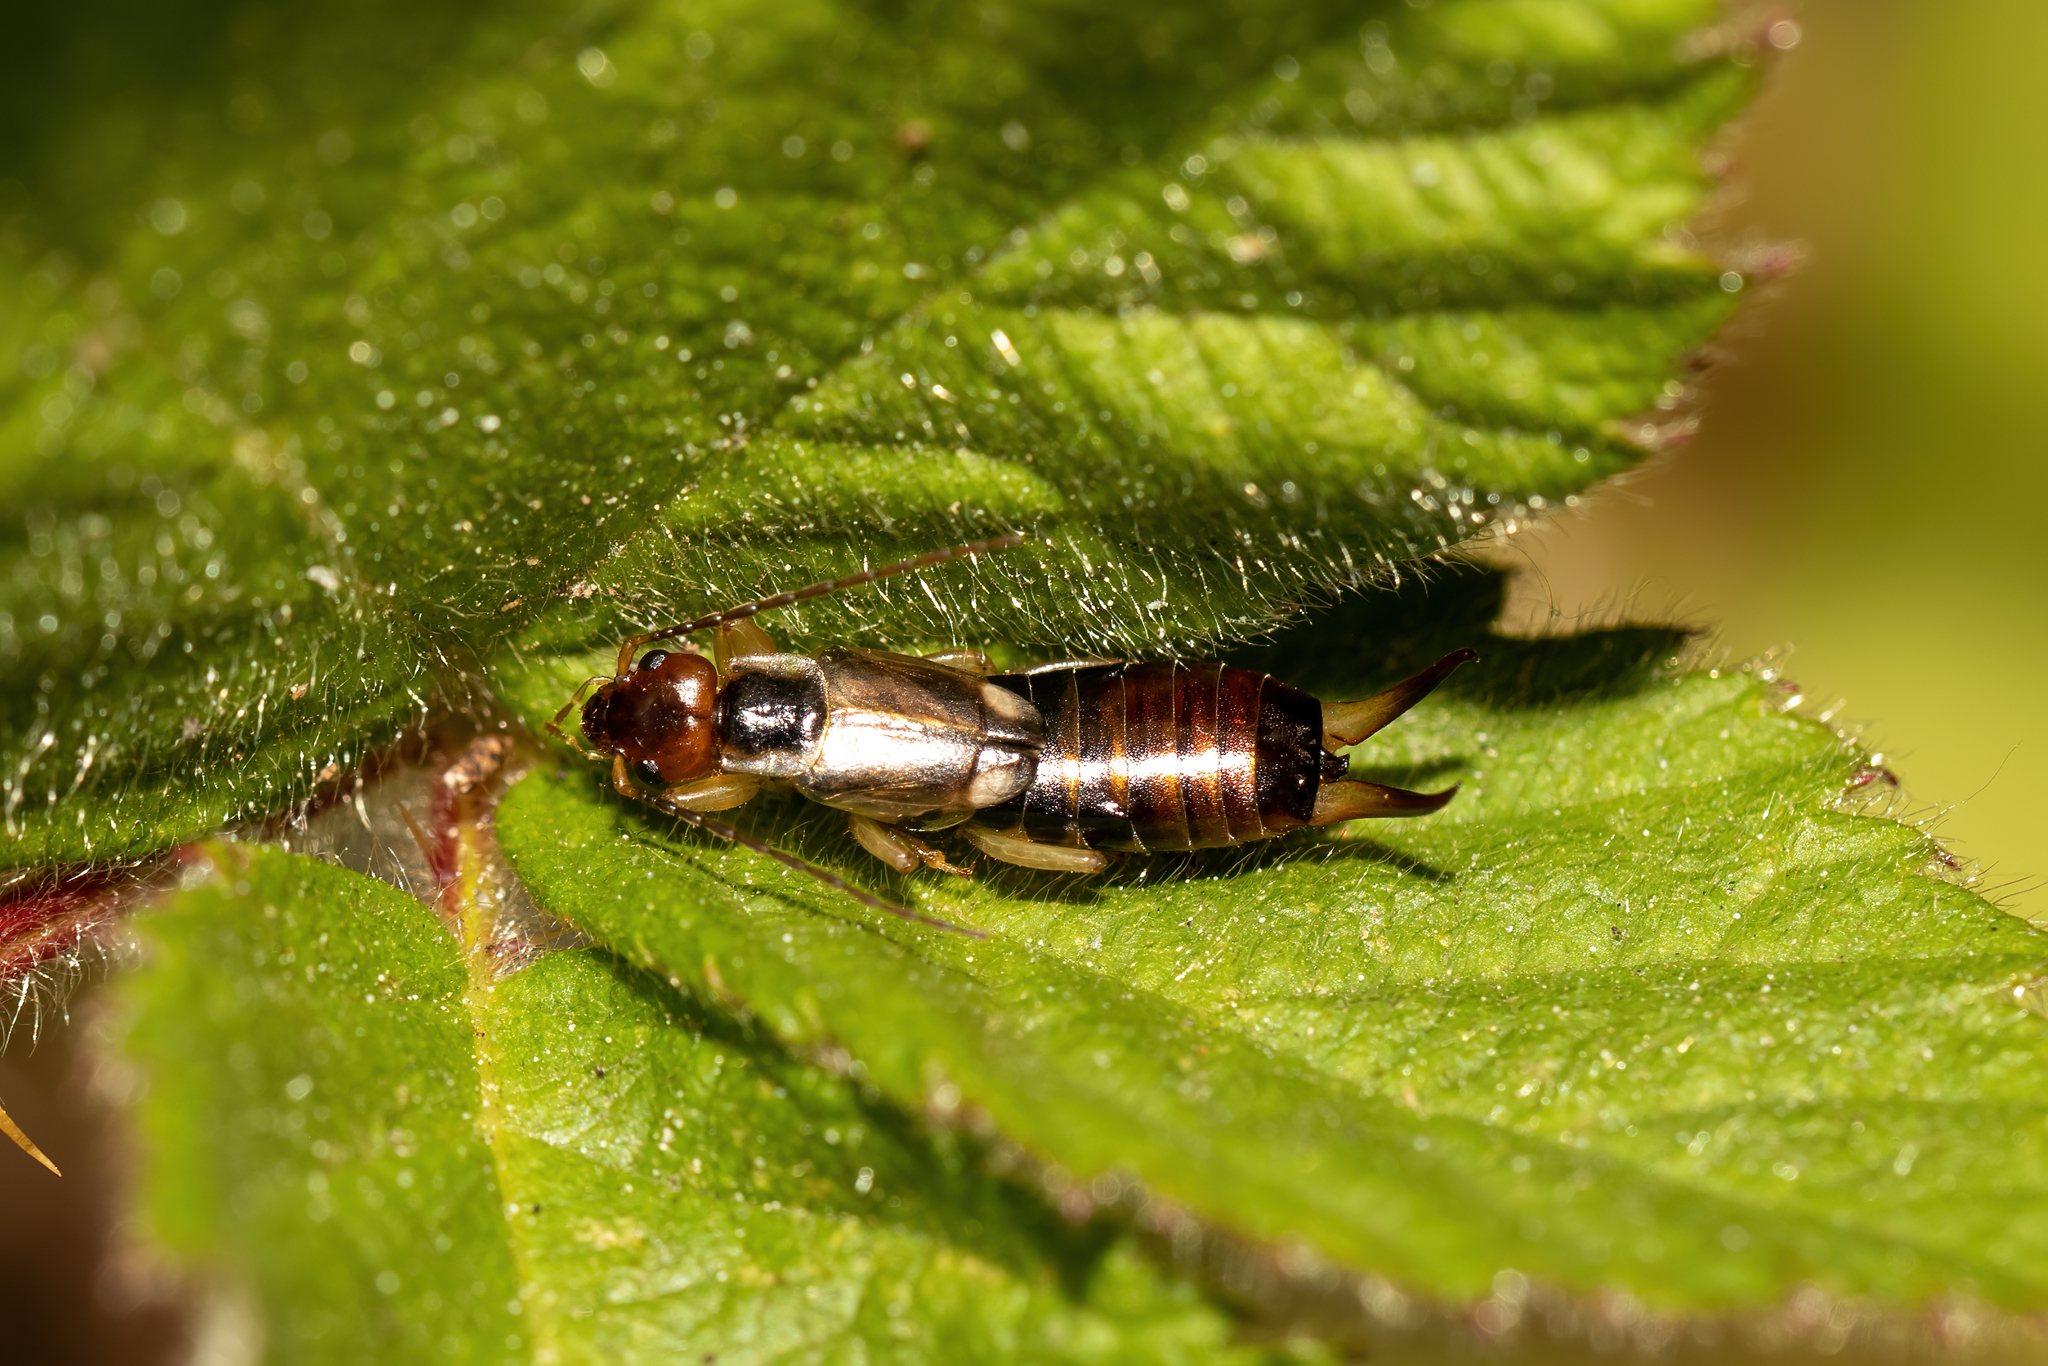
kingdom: Animalia
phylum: Arthropoda
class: Insecta
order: Dermaptera
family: Forficulidae
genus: Forficula
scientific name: Forficula
